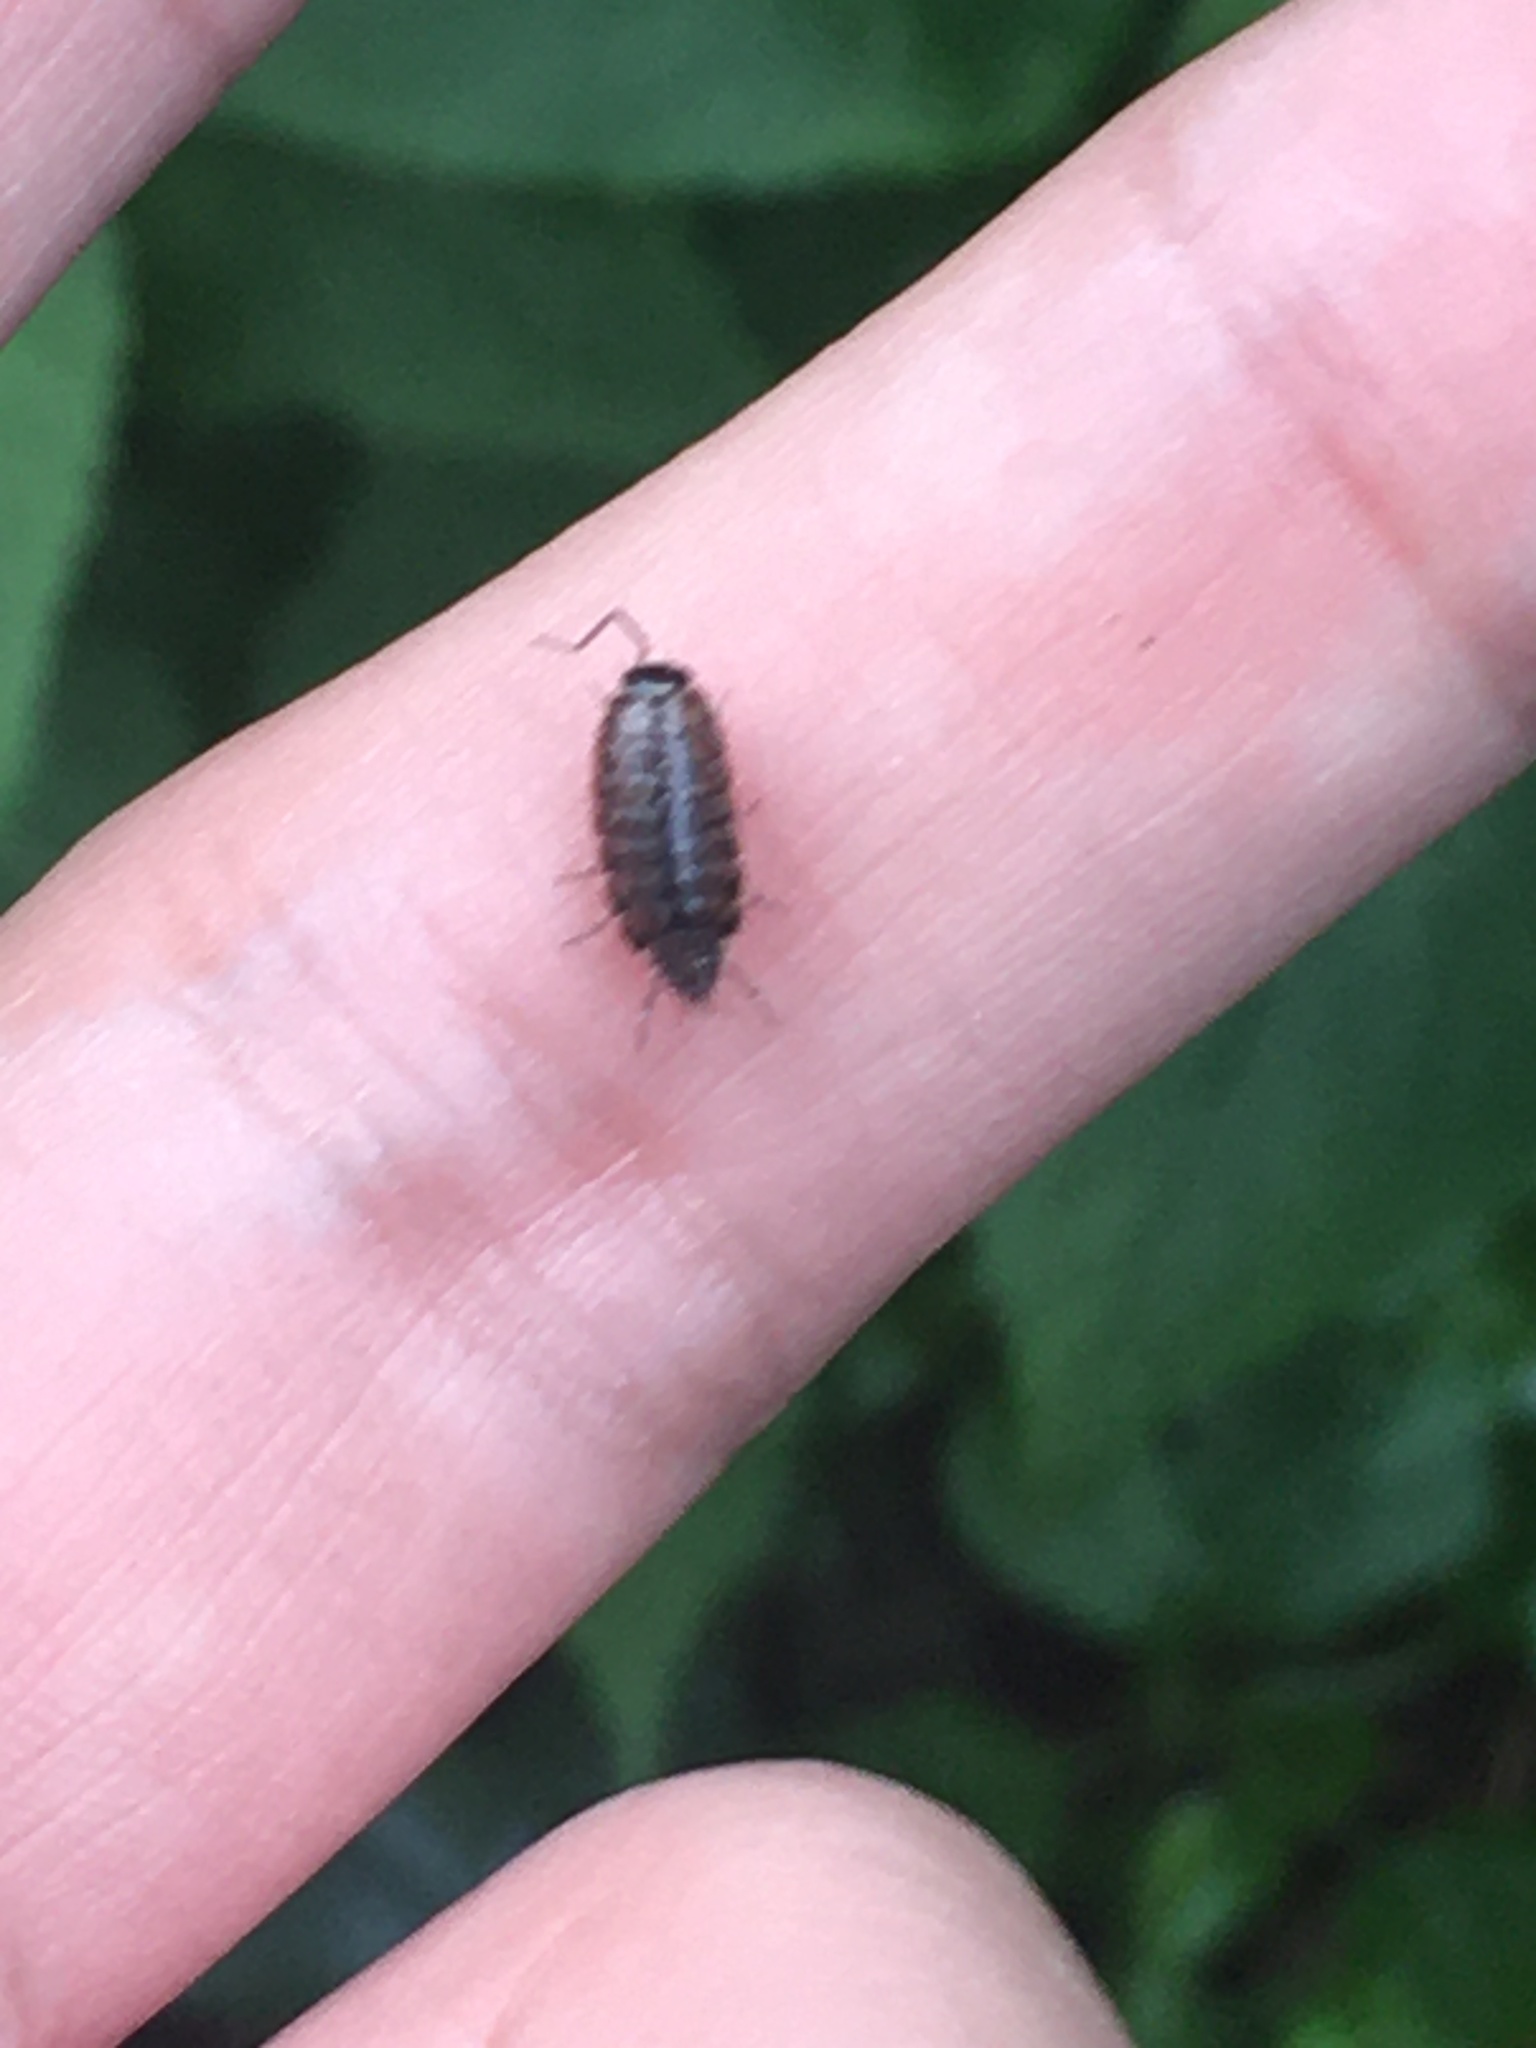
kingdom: Animalia
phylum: Arthropoda
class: Malacostraca
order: Isopoda
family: Philosciidae
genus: Philoscia
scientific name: Philoscia muscorum
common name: Common striped woodlouse
